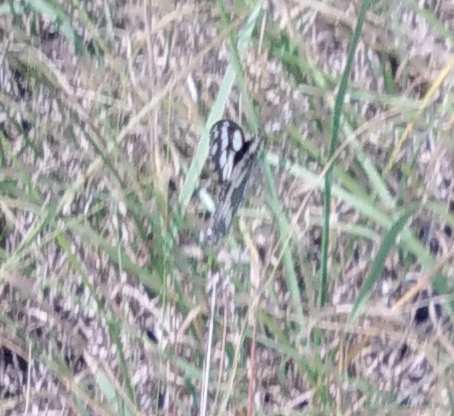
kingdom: Animalia
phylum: Arthropoda
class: Insecta
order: Lepidoptera
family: Nymphalidae
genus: Melanargia
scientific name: Melanargia galathea
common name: Marbled white
